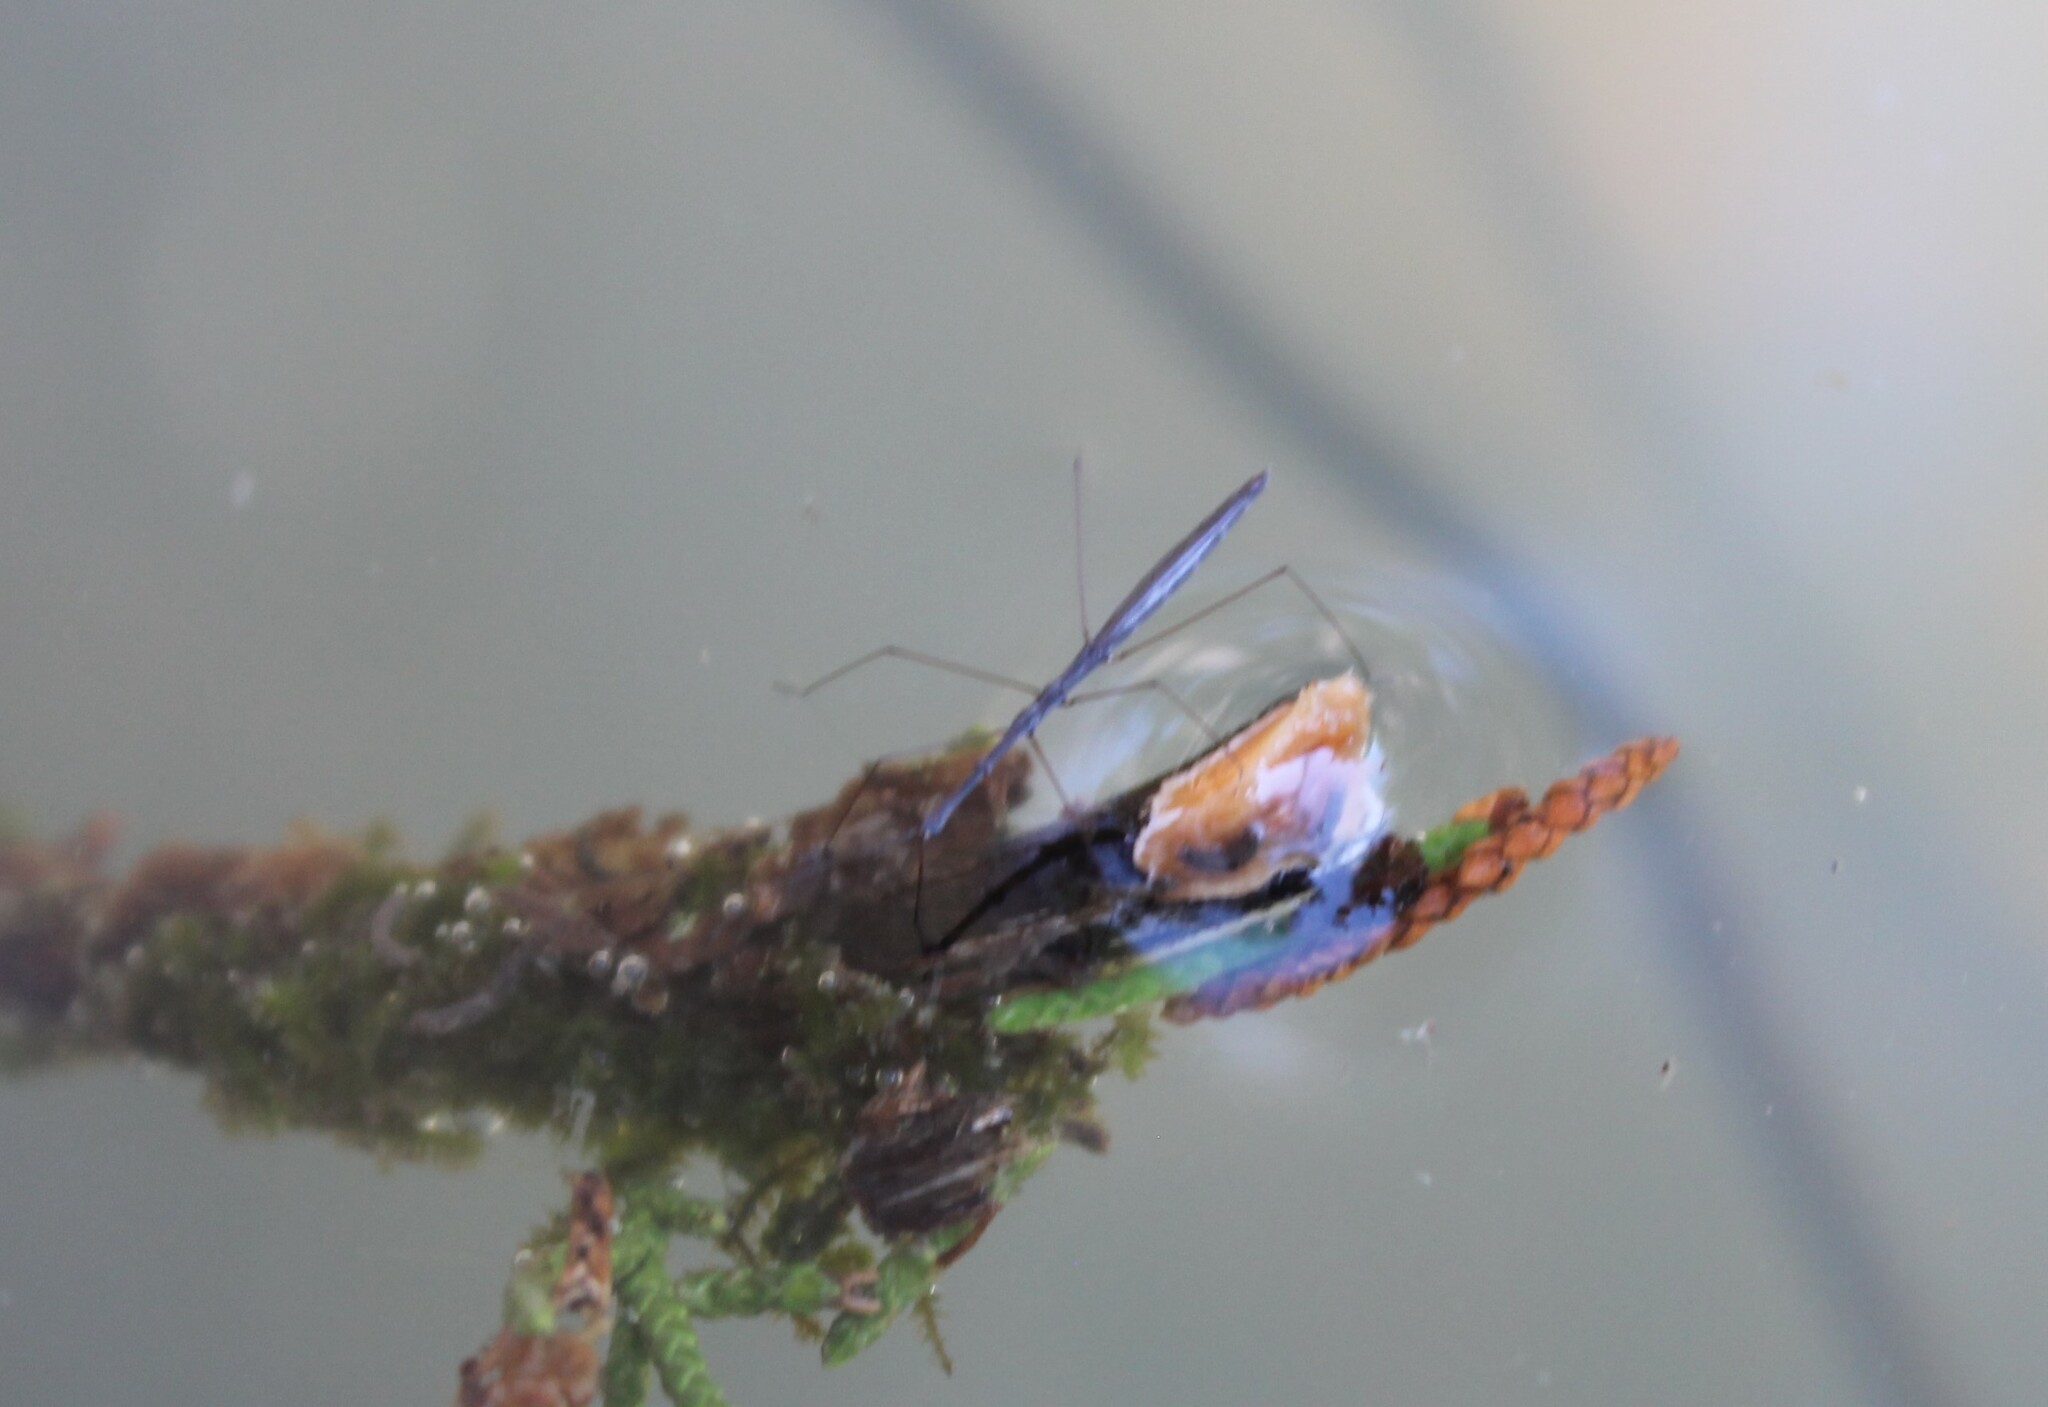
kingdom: Animalia
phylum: Arthropoda
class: Insecta
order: Hemiptera
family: Hydrometridae
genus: Hydrometra
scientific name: Hydrometra
